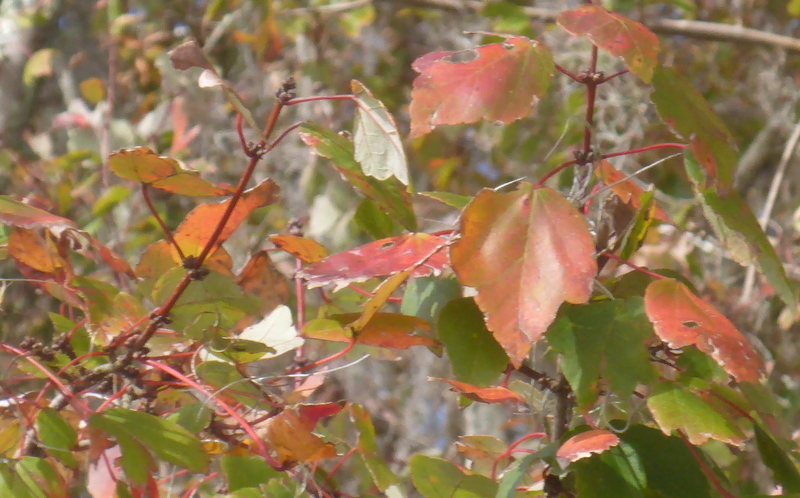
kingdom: Plantae
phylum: Tracheophyta
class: Magnoliopsida
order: Sapindales
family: Sapindaceae
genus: Acer
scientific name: Acer rubrum
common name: Red maple
